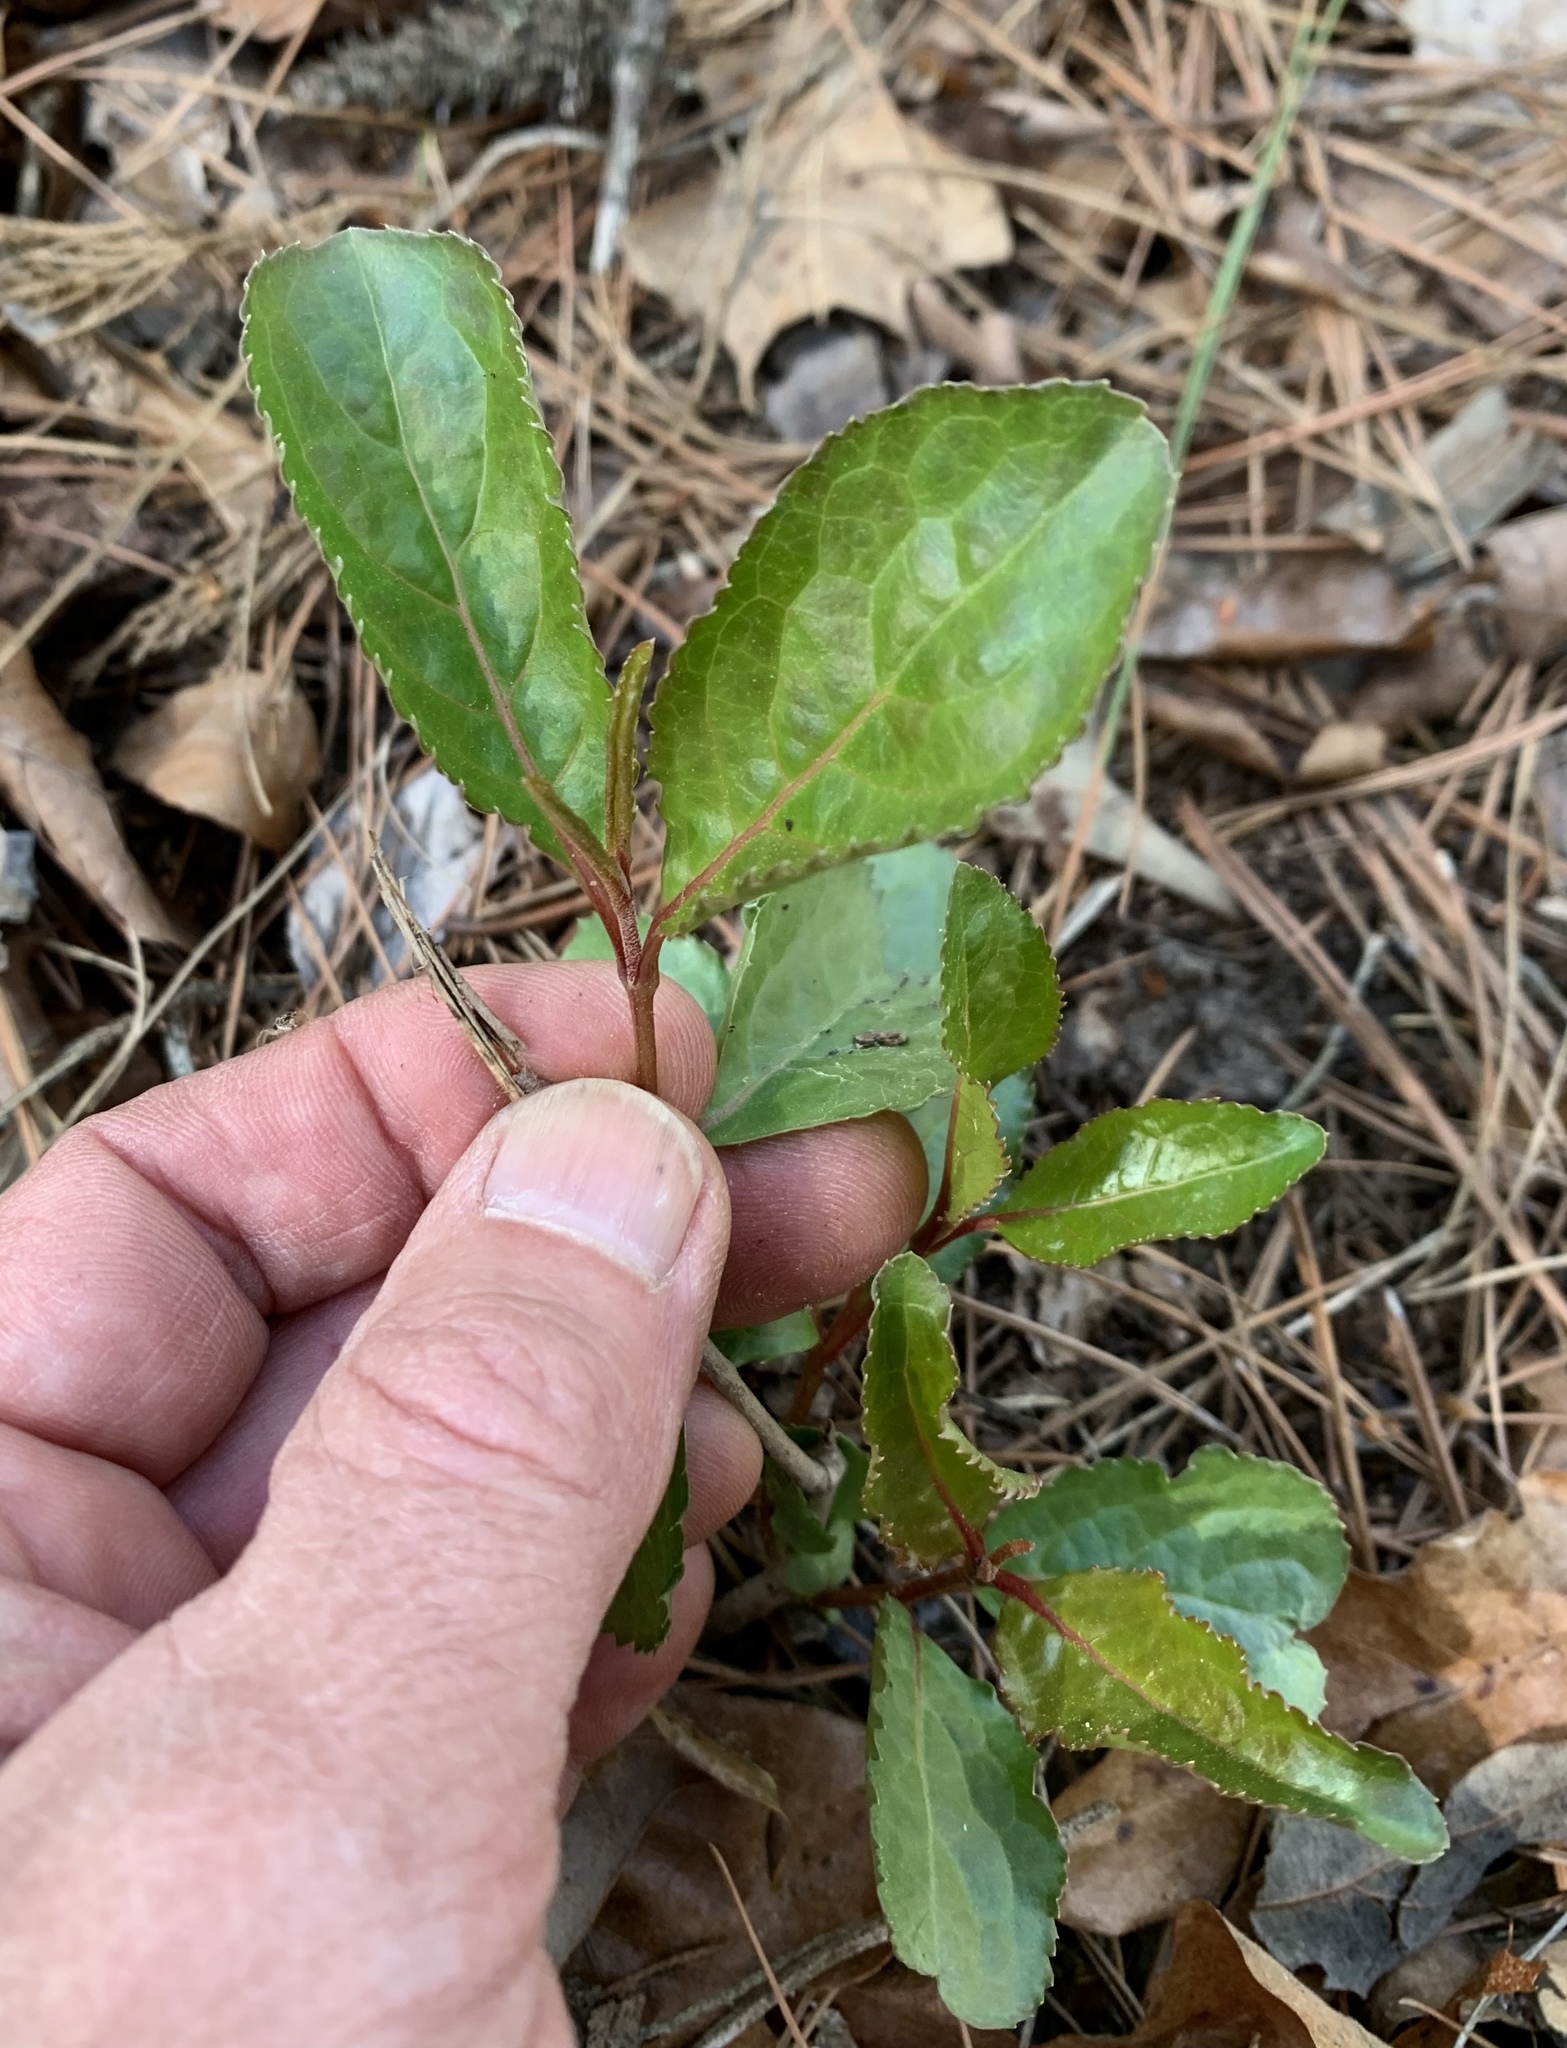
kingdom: Plantae
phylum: Tracheophyta
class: Magnoliopsida
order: Dipsacales
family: Viburnaceae
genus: Viburnum
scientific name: Viburnum rufidulum
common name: Blue haw
